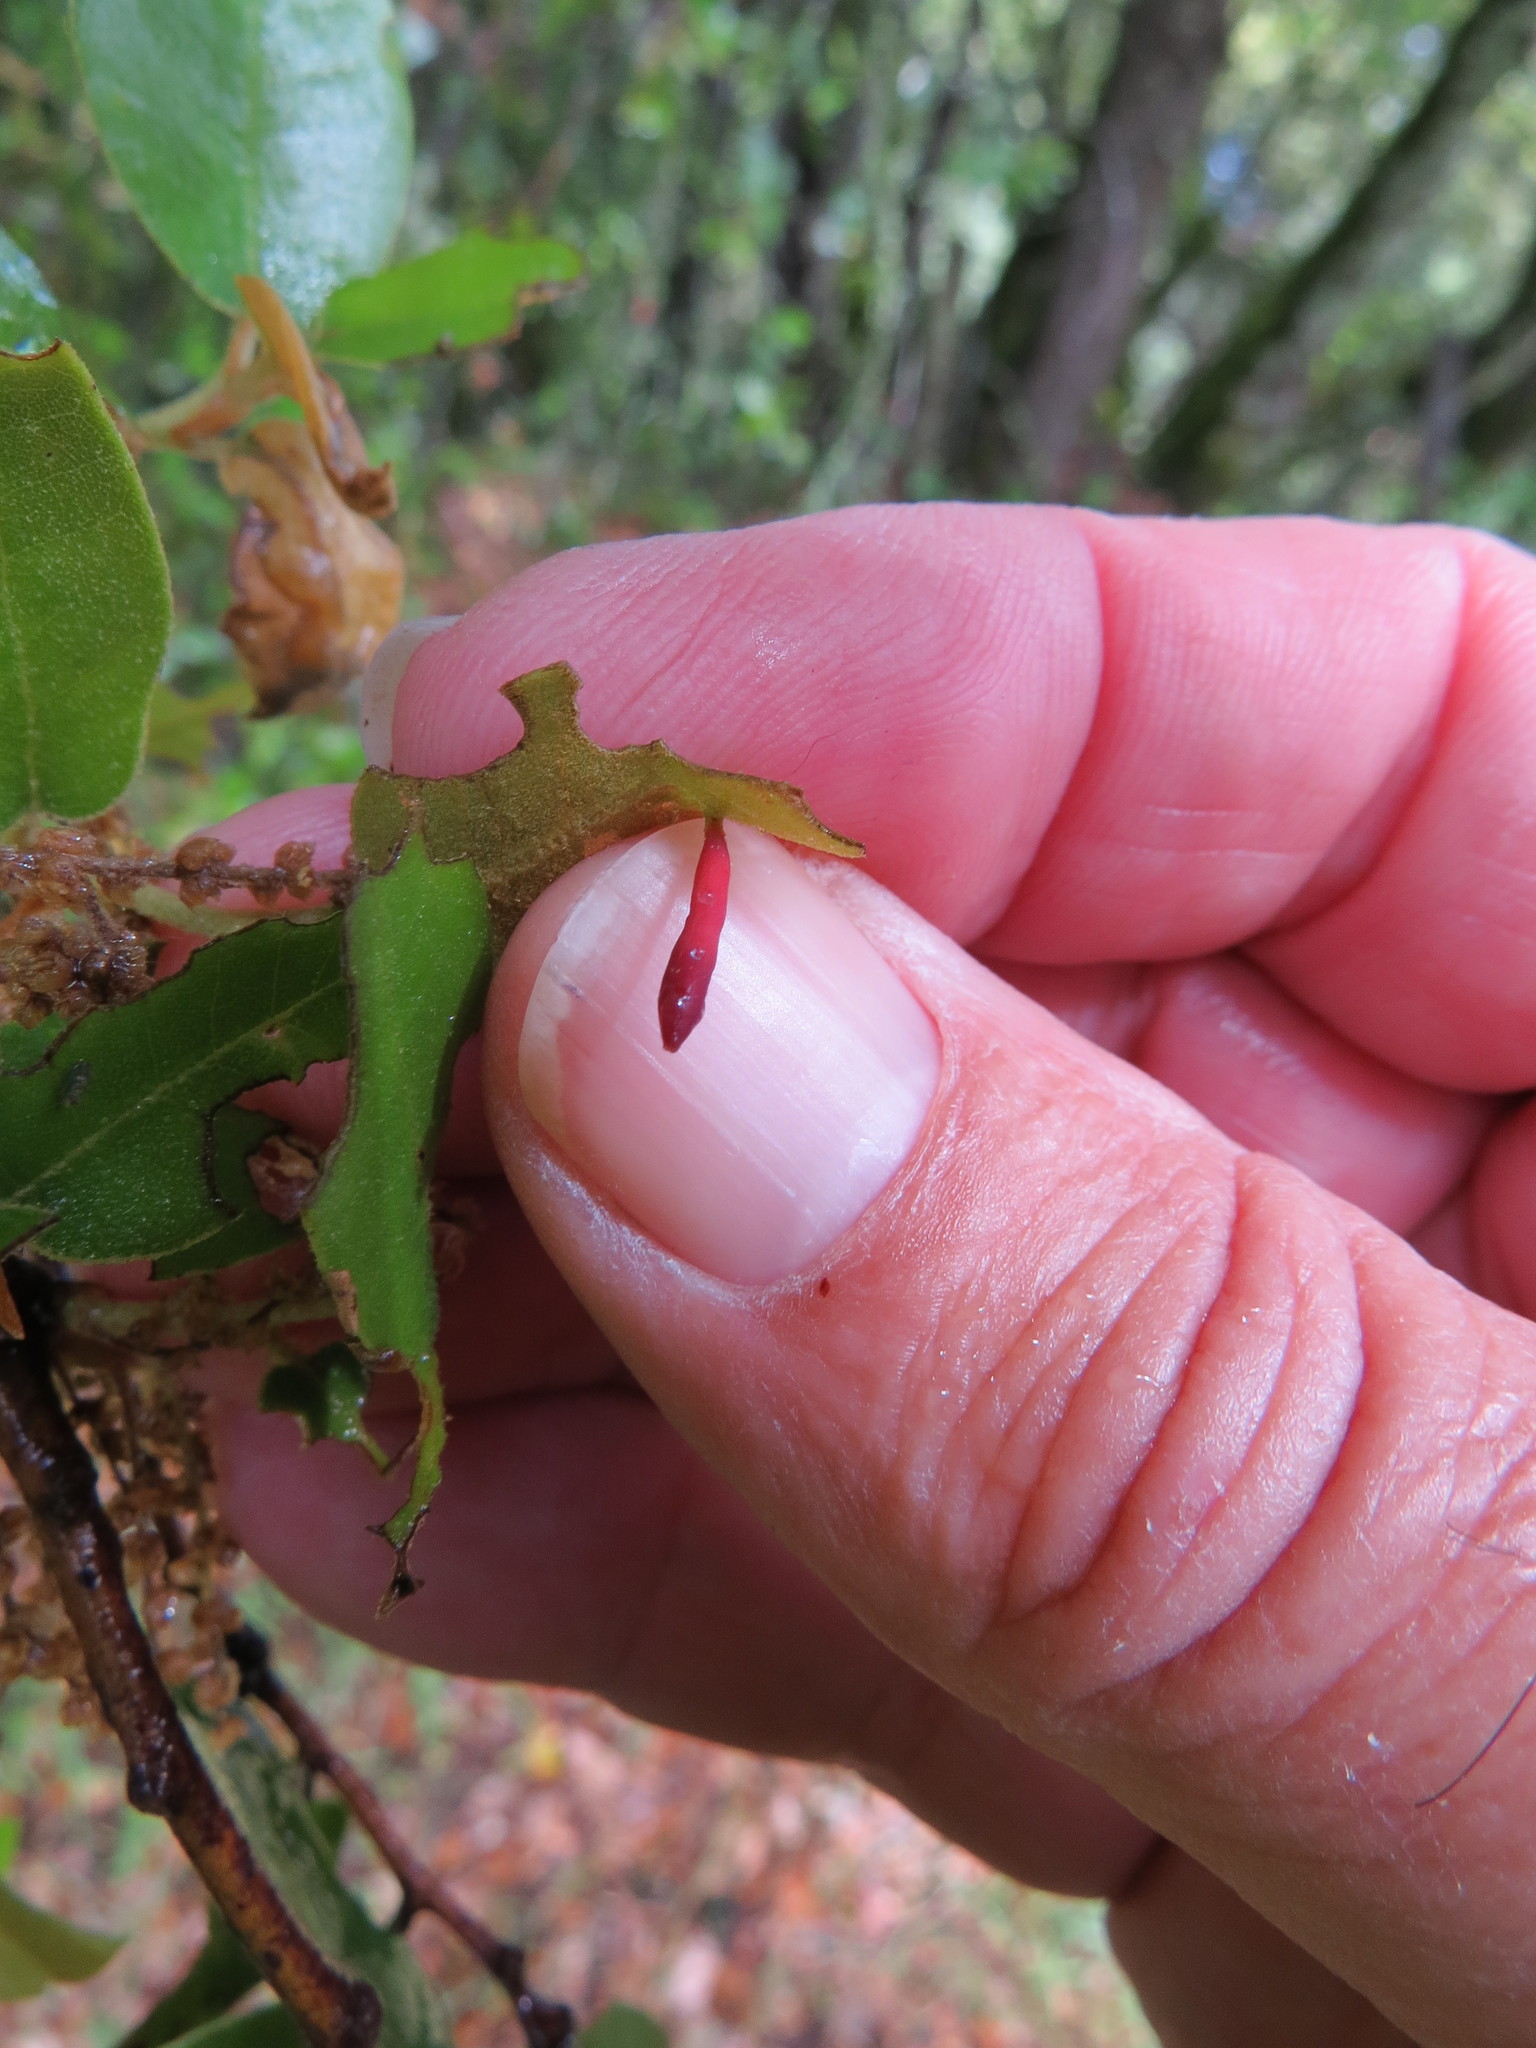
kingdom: Animalia
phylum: Arthropoda
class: Insecta
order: Hymenoptera
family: Cynipidae
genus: Heteroecus
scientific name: Heteroecus
